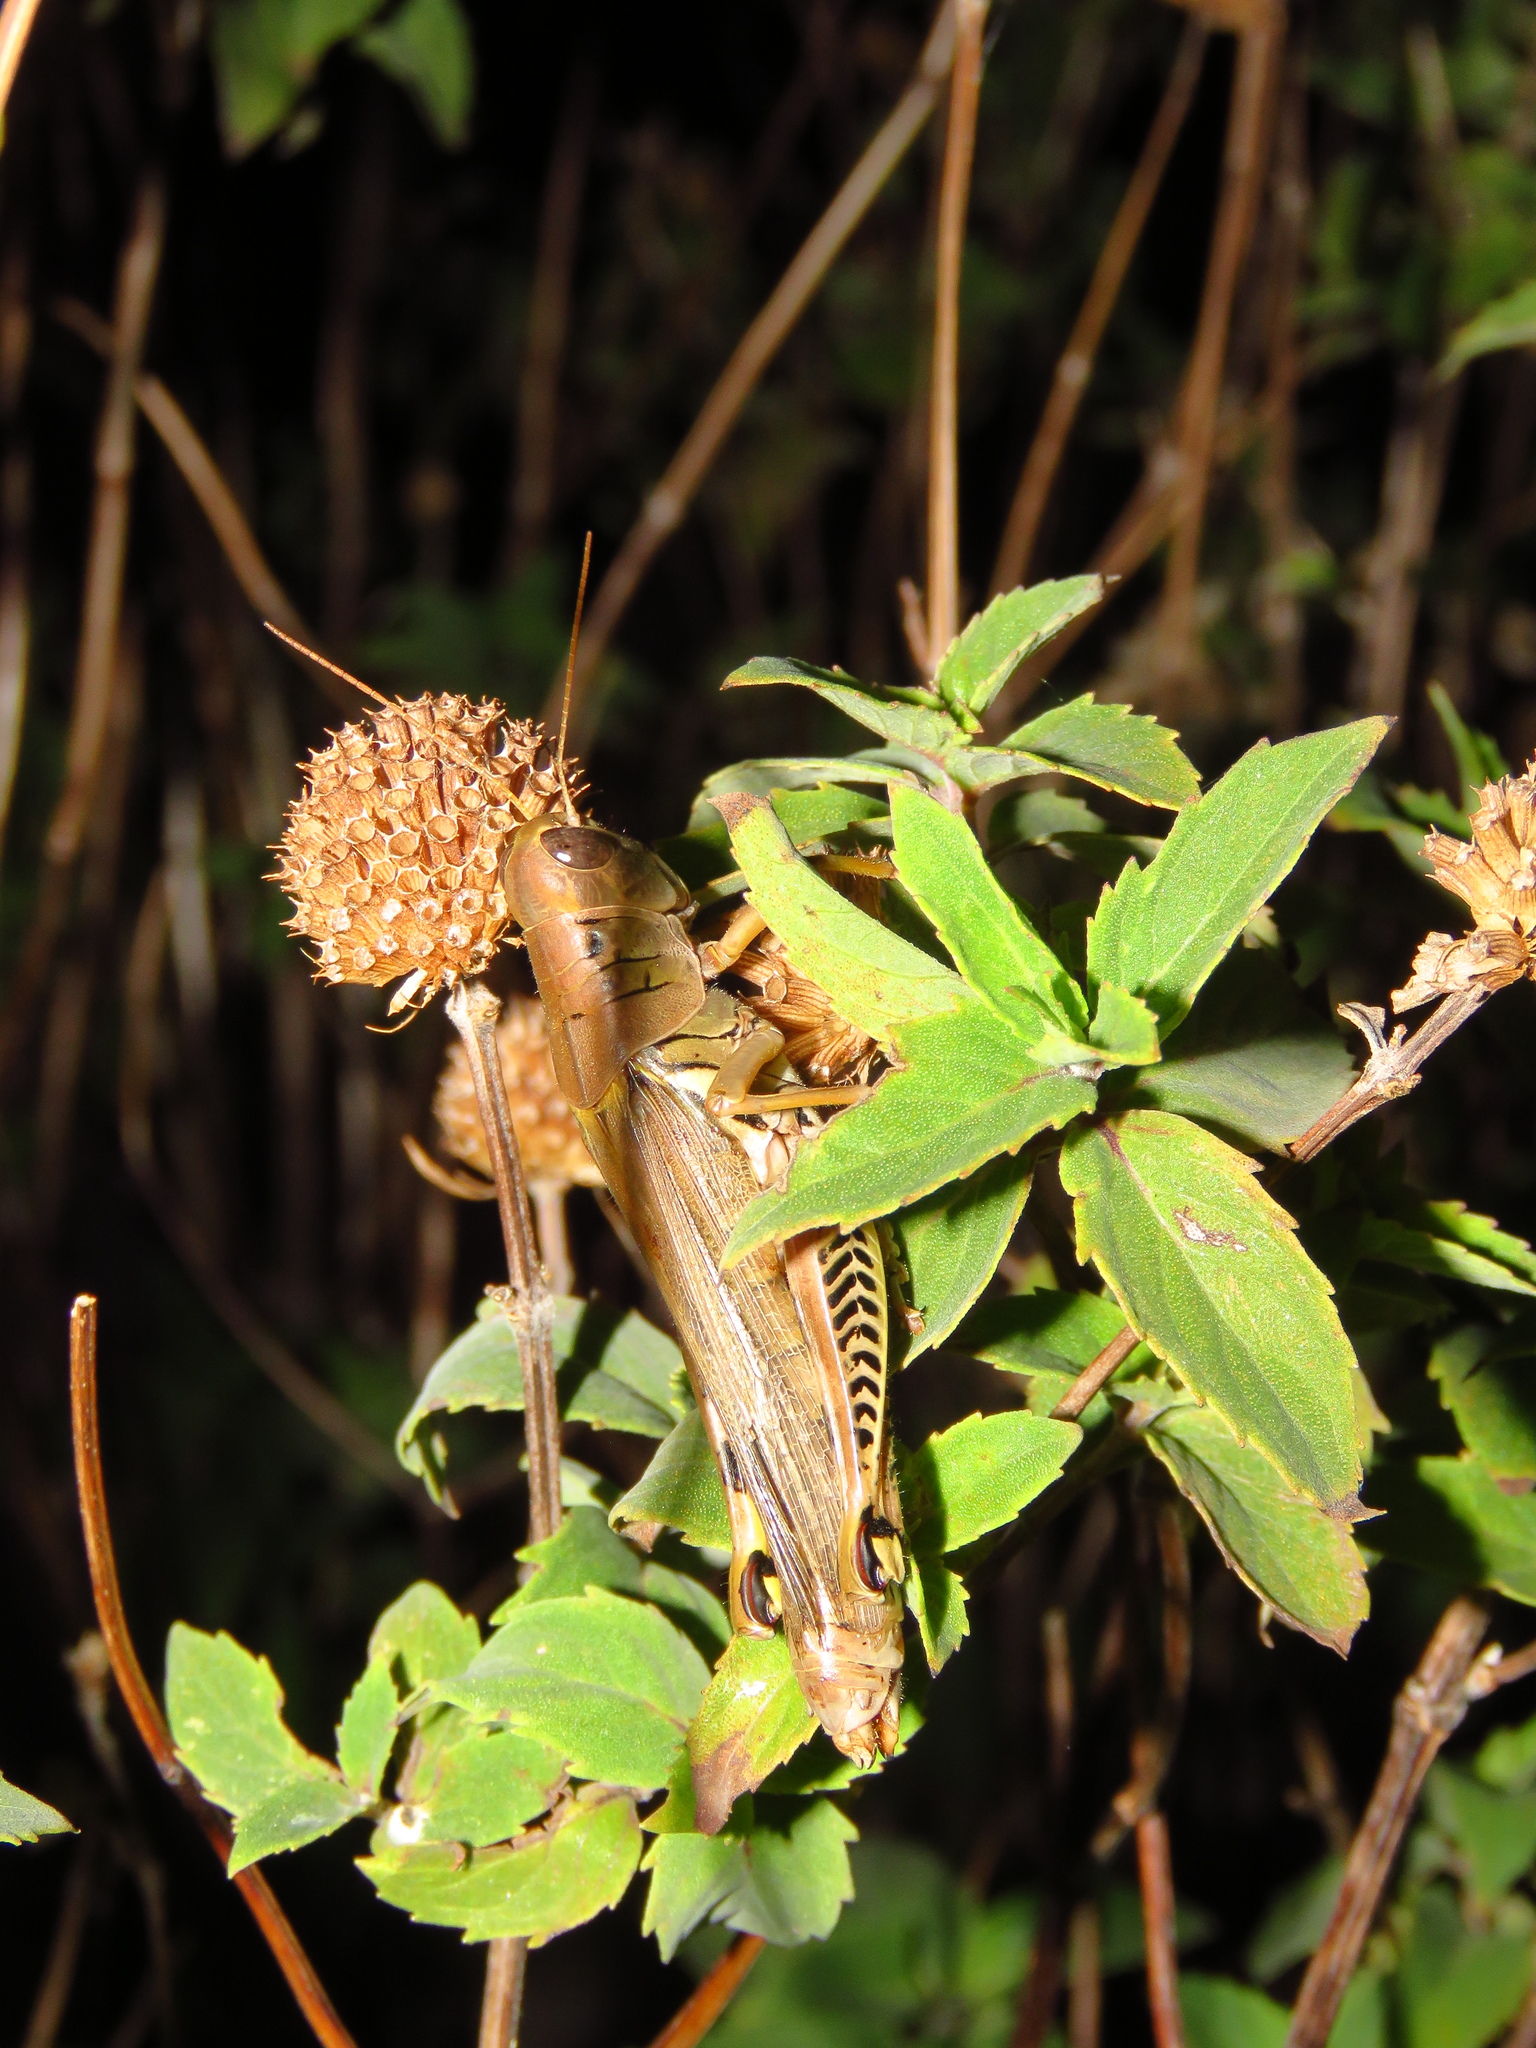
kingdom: Animalia
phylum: Arthropoda
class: Insecta
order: Orthoptera
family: Acrididae
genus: Melanoplus
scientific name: Melanoplus differentialis
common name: Differential grasshopper
